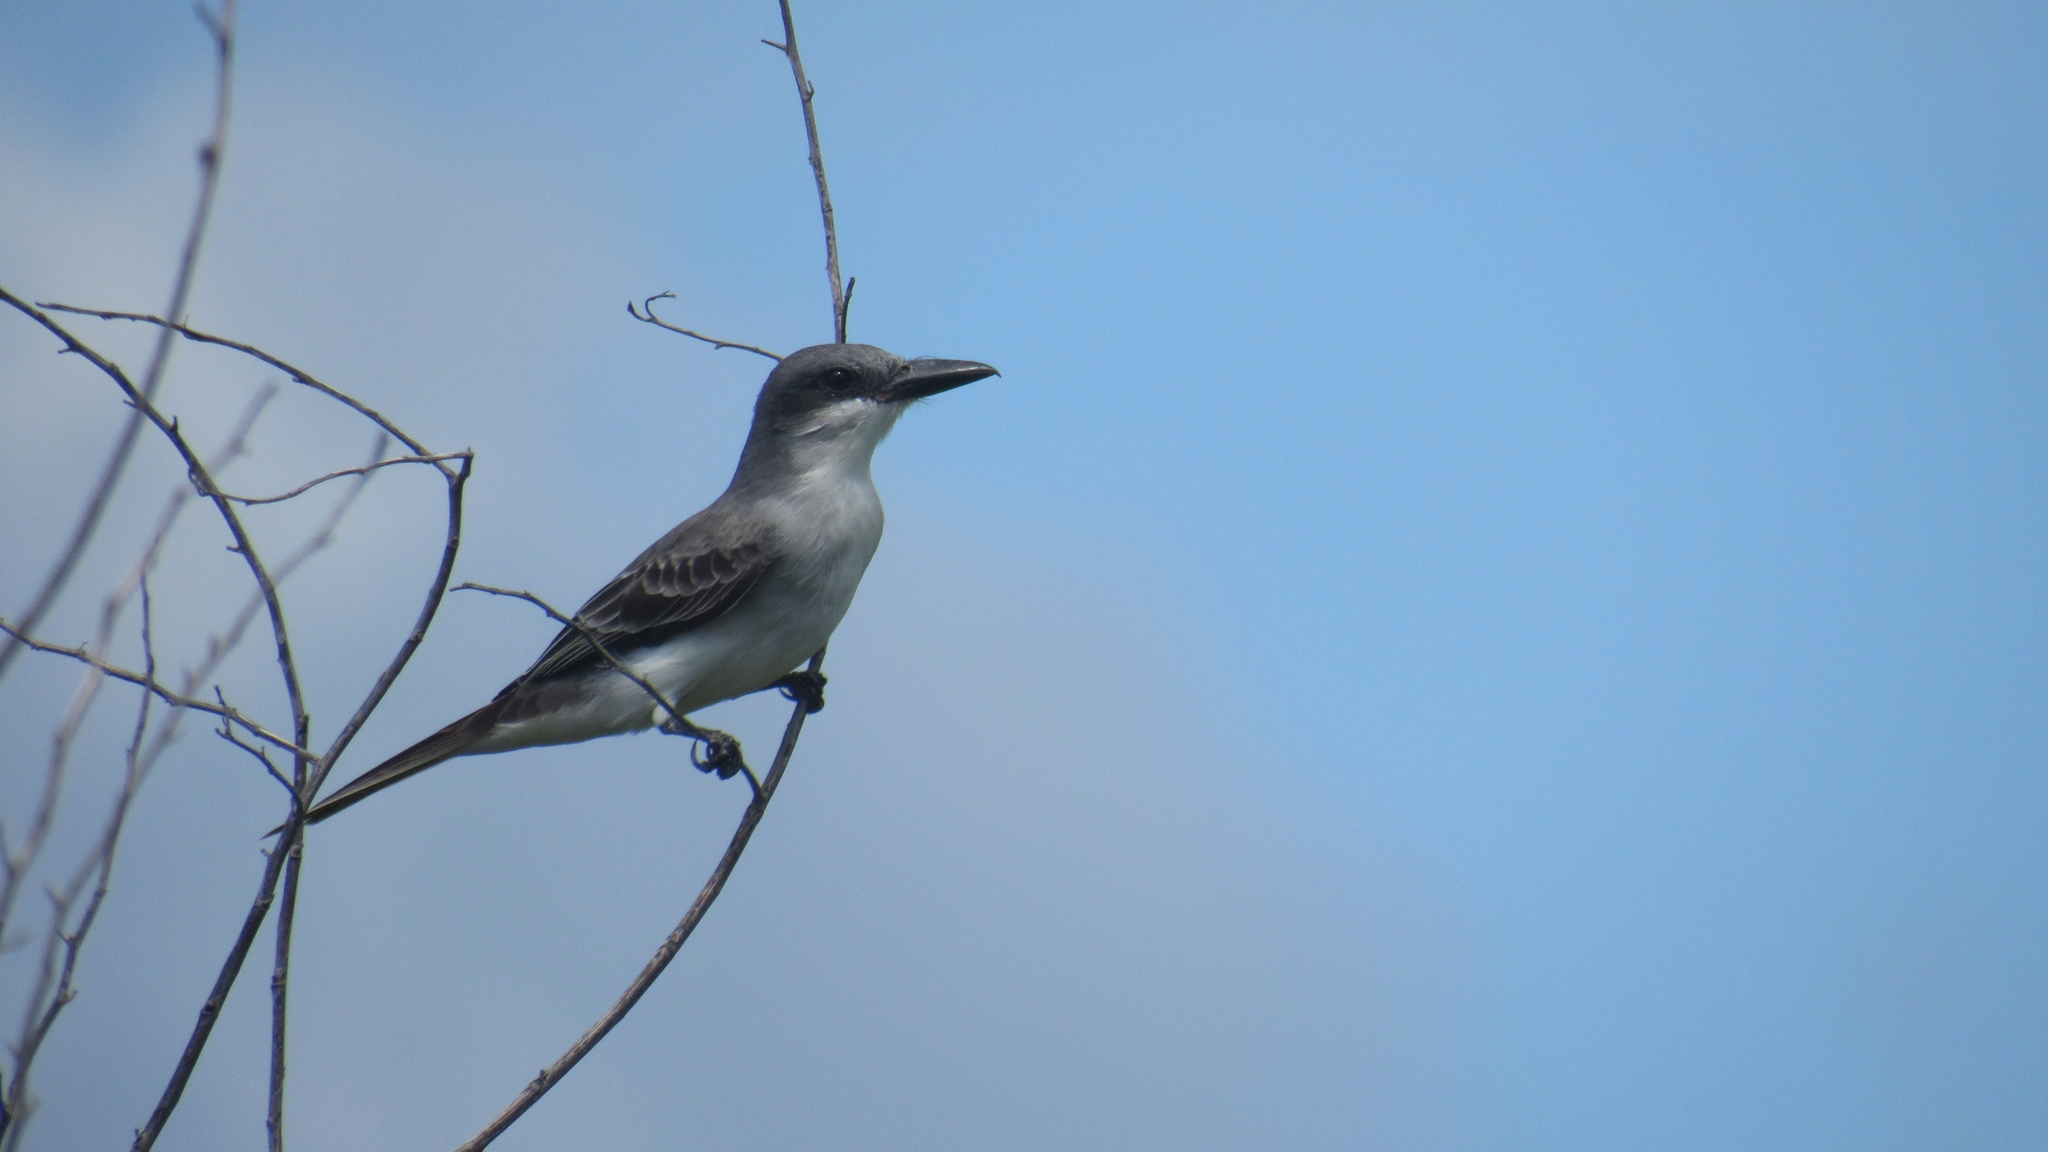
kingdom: Animalia
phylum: Chordata
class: Aves
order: Passeriformes
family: Tyrannidae
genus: Tyrannus
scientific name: Tyrannus dominicensis
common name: Gray kingbird
